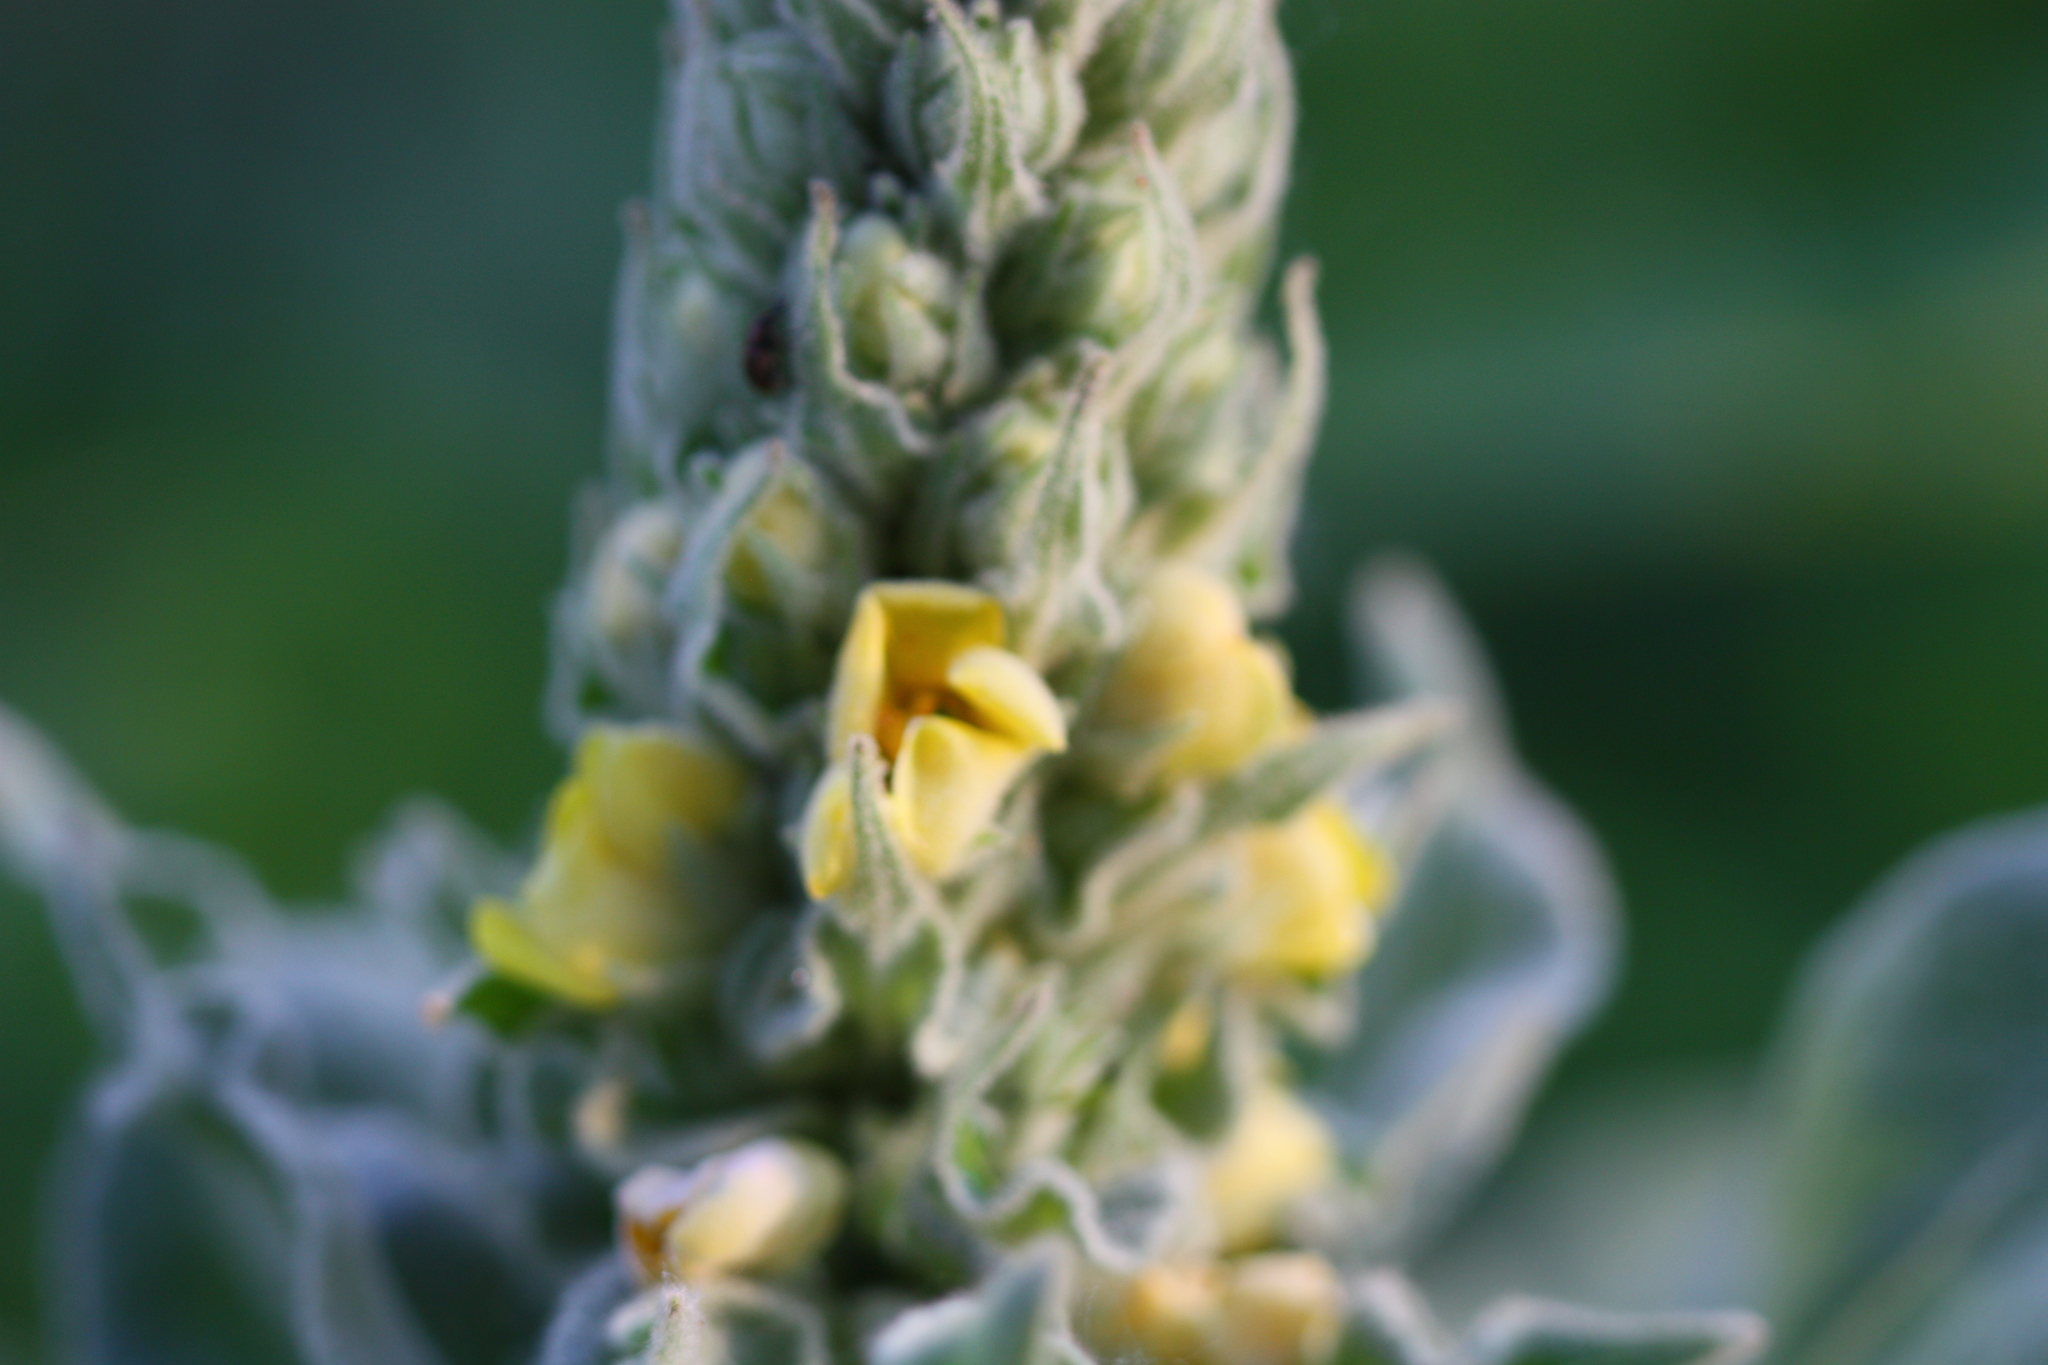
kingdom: Plantae
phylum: Tracheophyta
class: Magnoliopsida
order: Lamiales
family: Scrophulariaceae
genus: Verbascum
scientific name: Verbascum thapsus
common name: Common mullein
